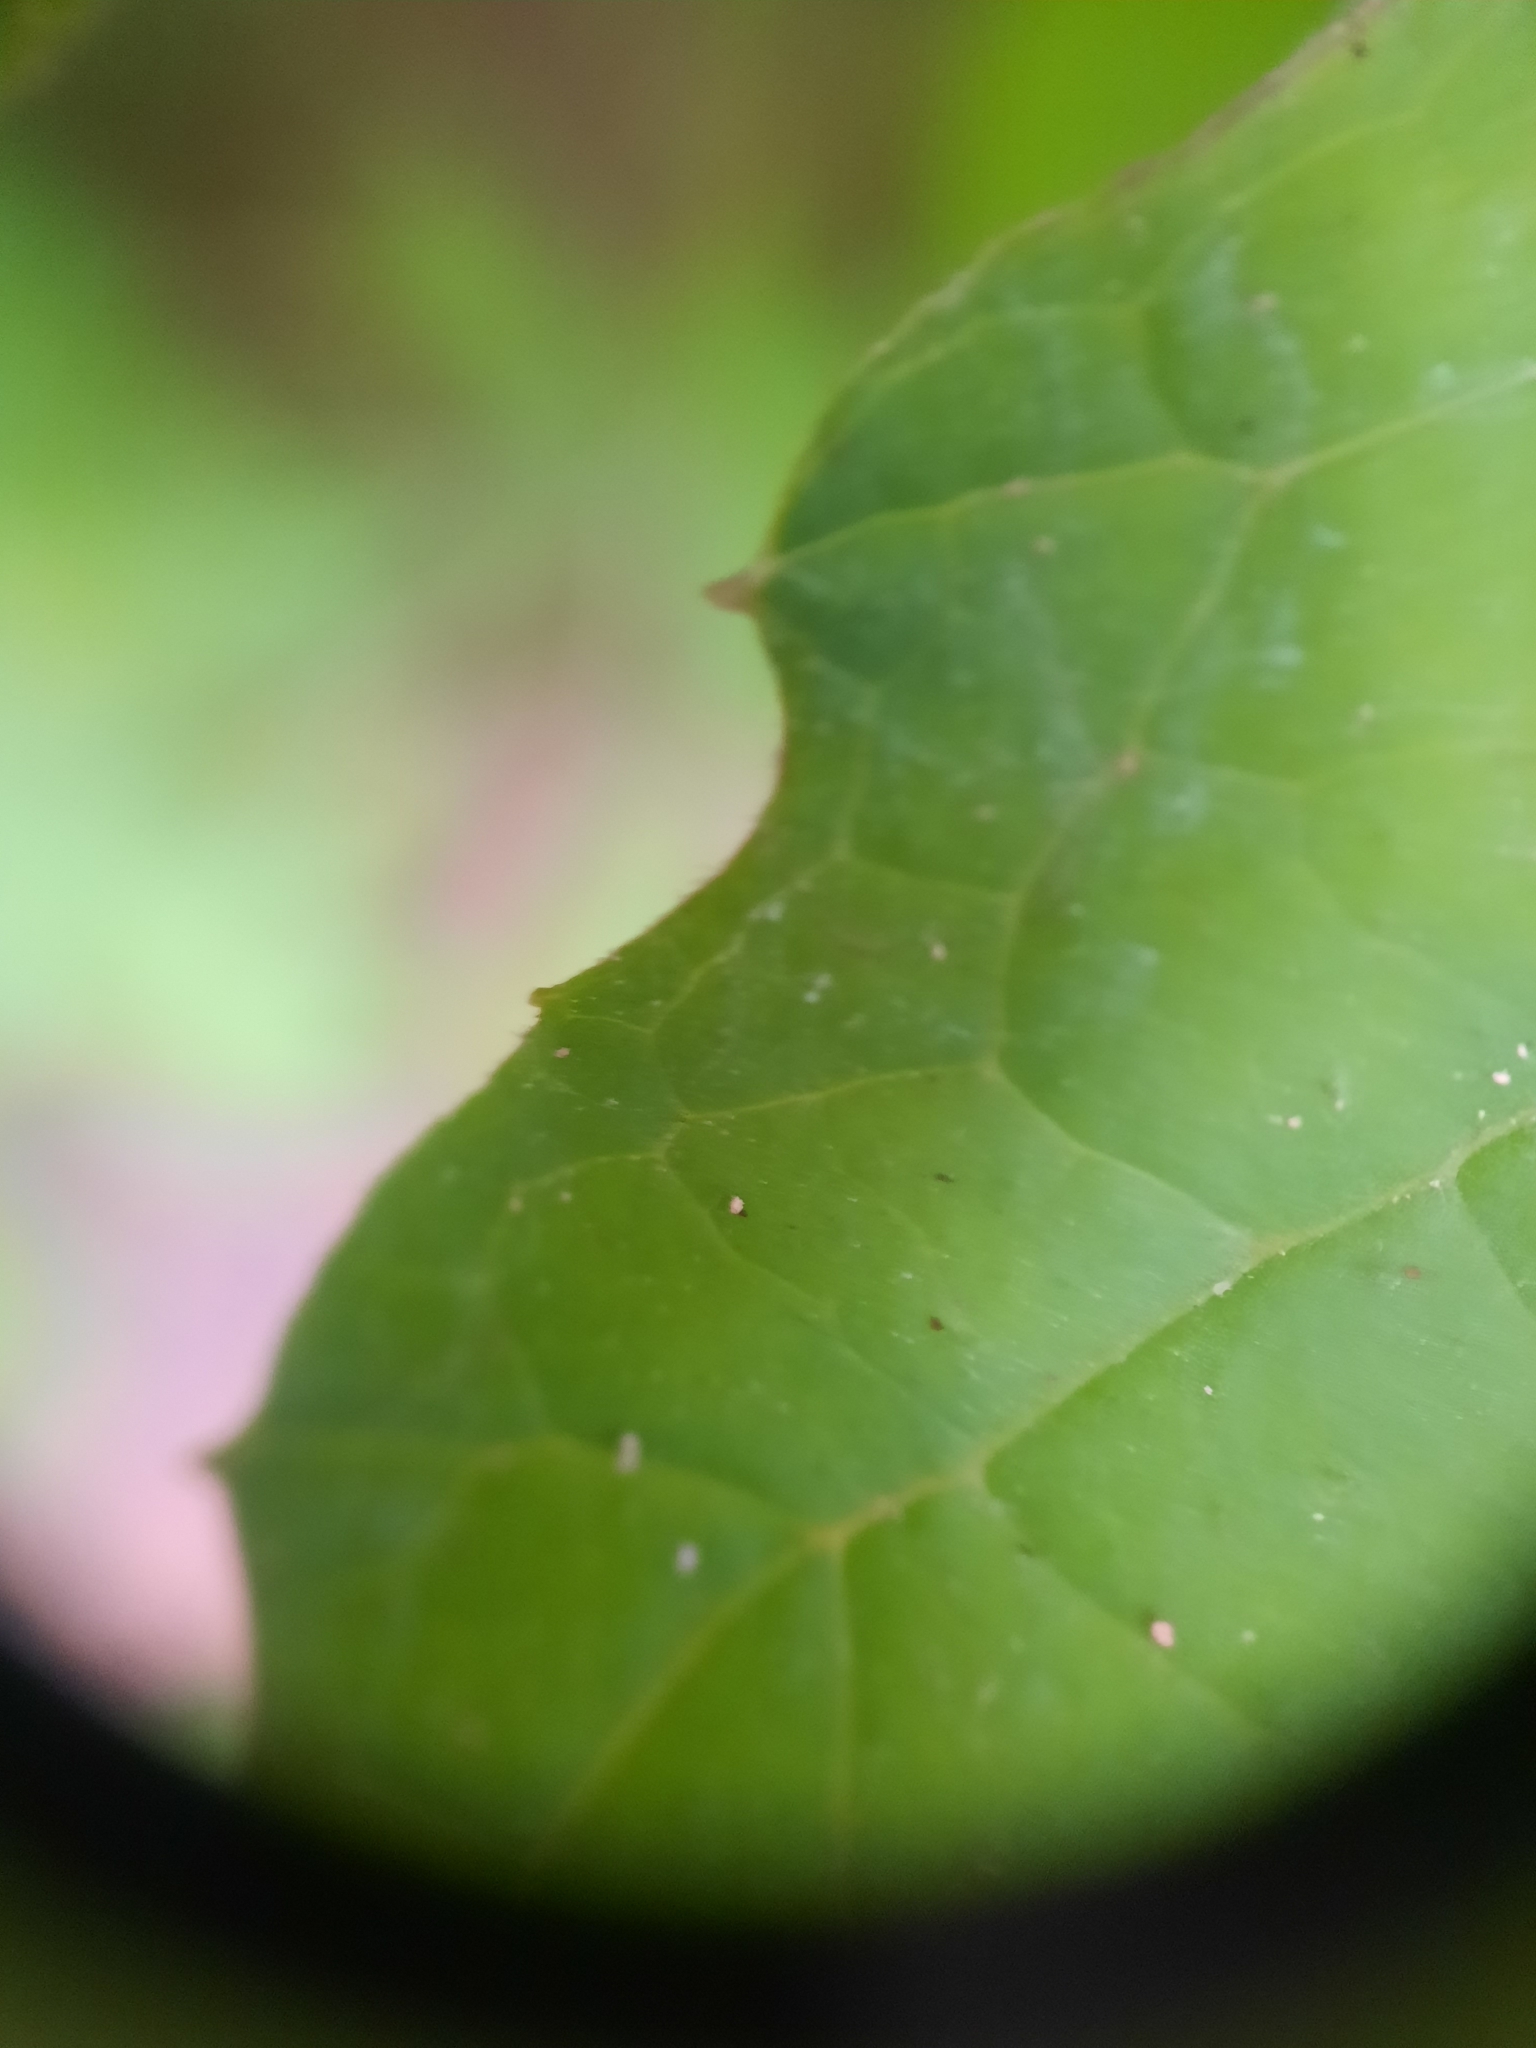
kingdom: Plantae
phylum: Tracheophyta
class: Magnoliopsida
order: Asterales
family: Asteraceae
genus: Petasites
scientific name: Petasites frigidus
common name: Arctic butterbur
